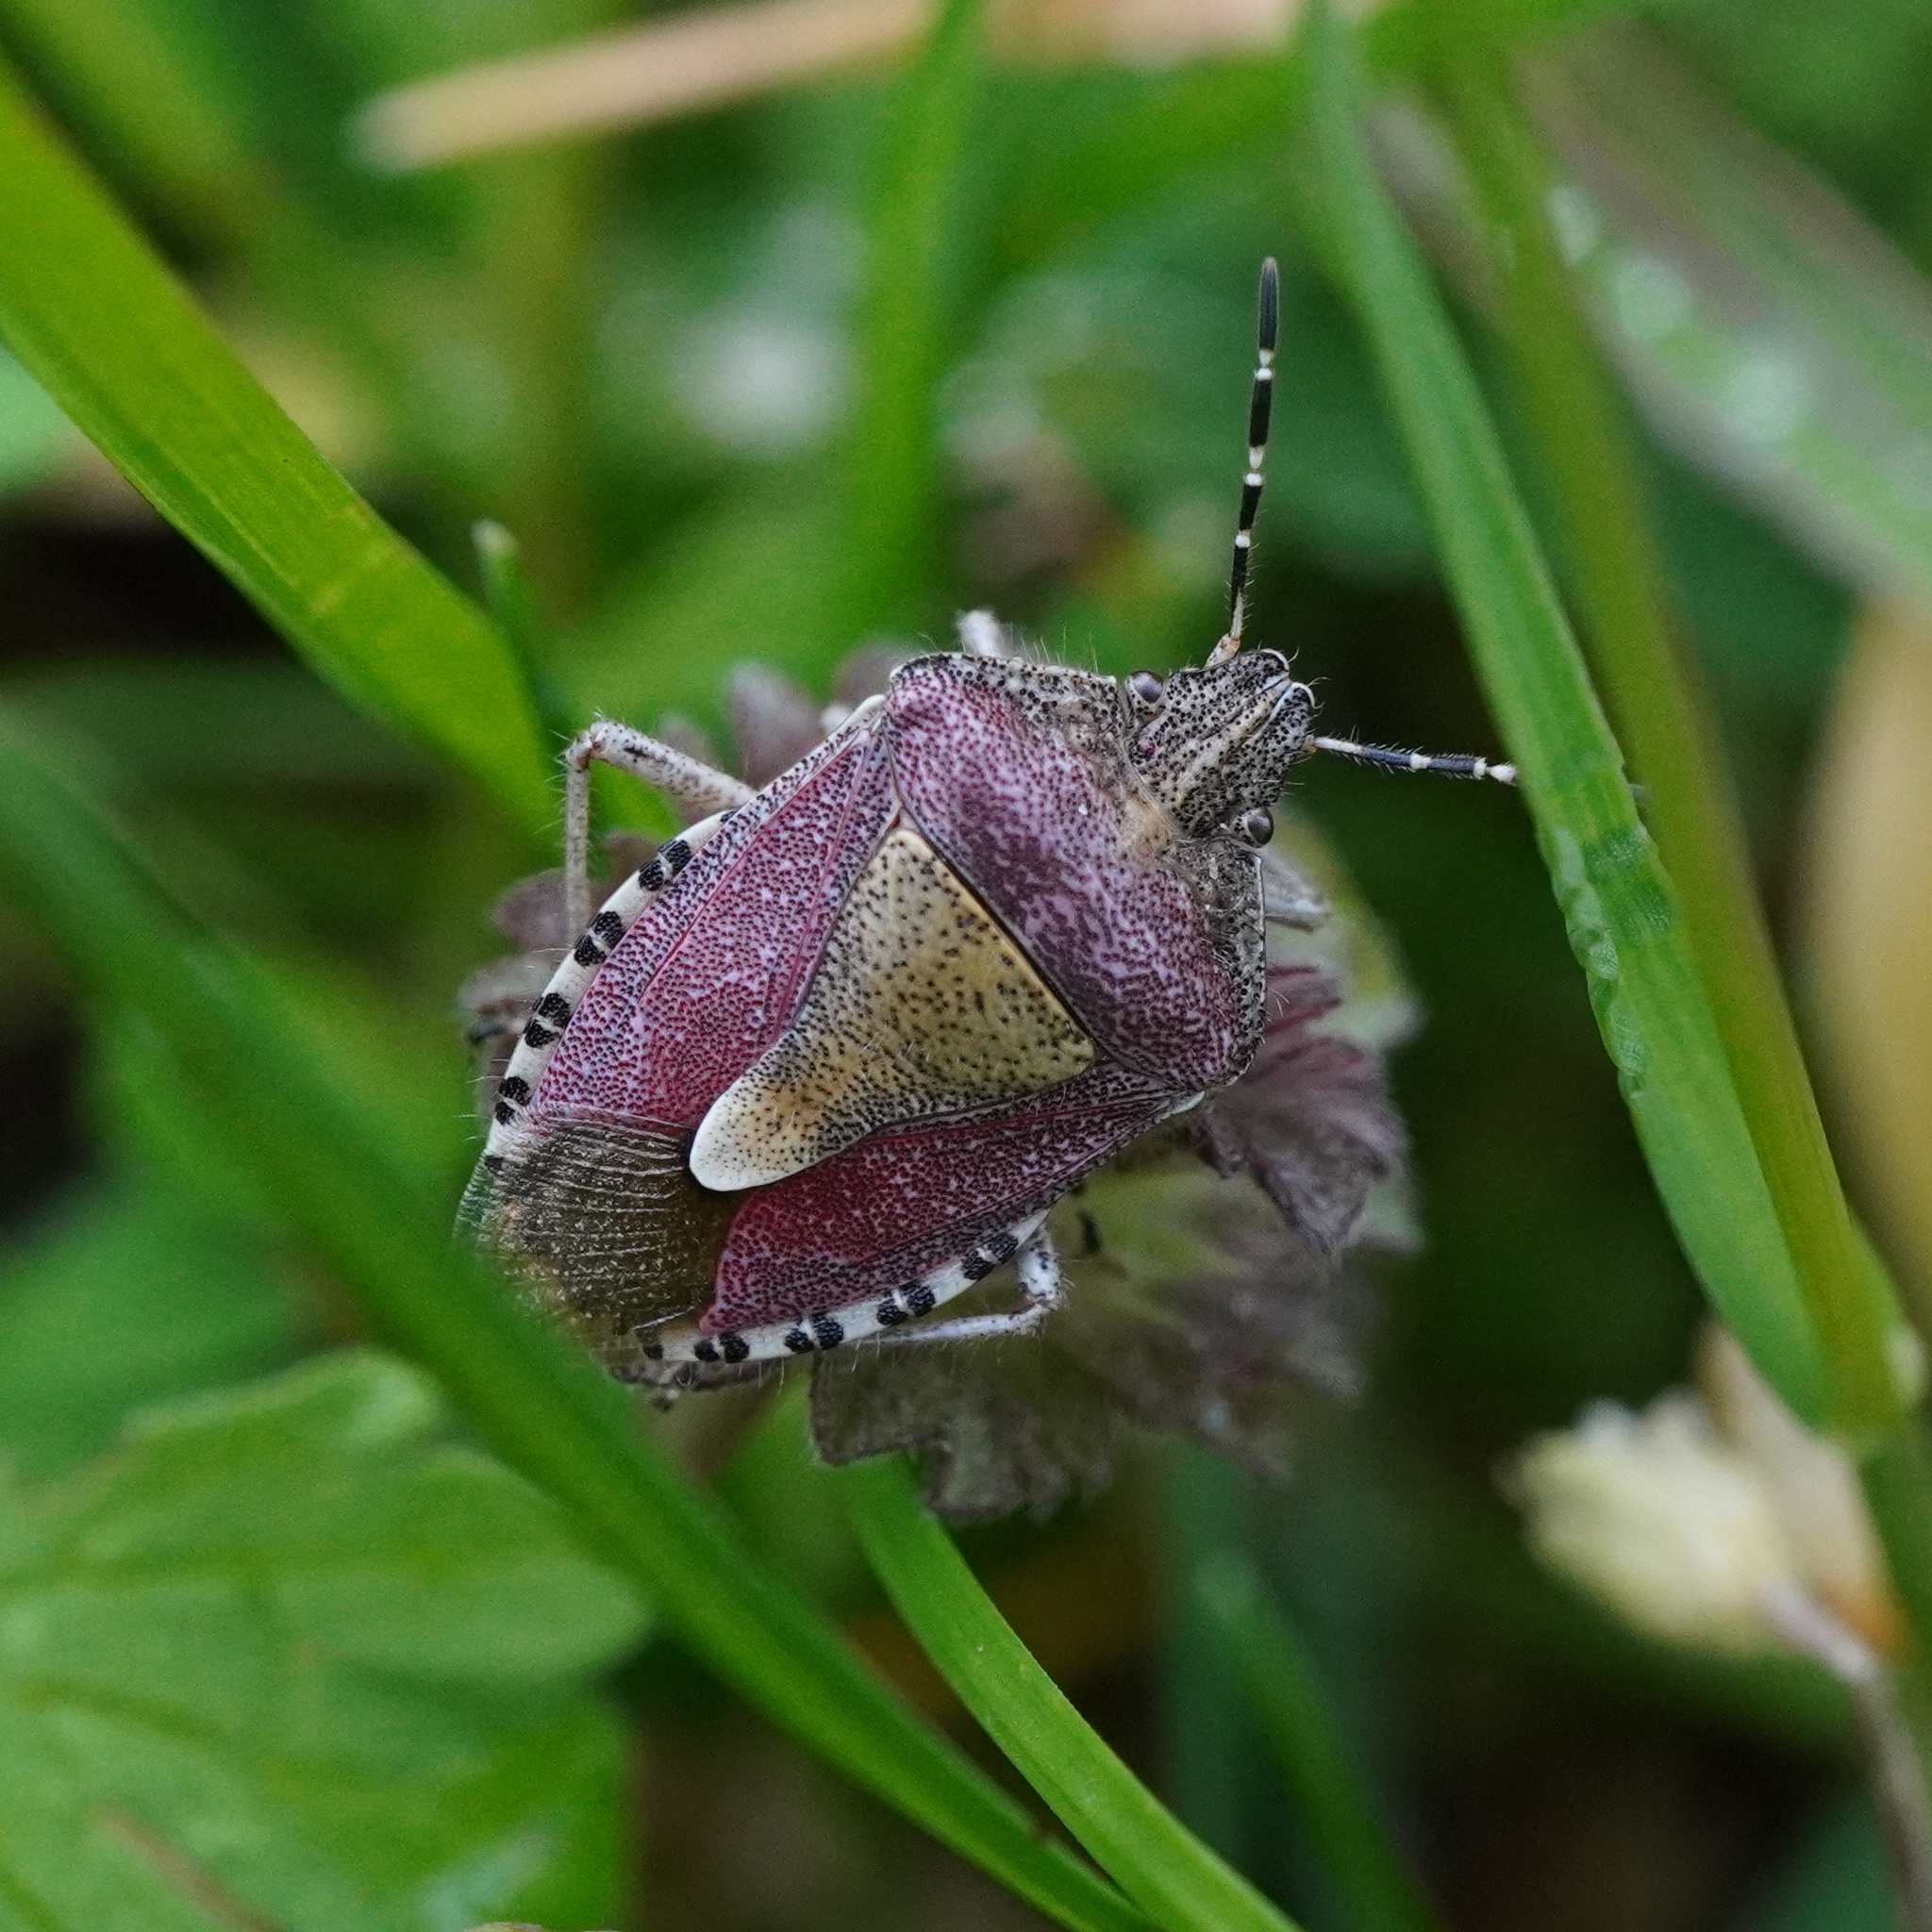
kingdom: Animalia
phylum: Arthropoda
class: Insecta
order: Hemiptera
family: Pentatomidae
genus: Dolycoris
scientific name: Dolycoris baccarum
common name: Sloe bug
